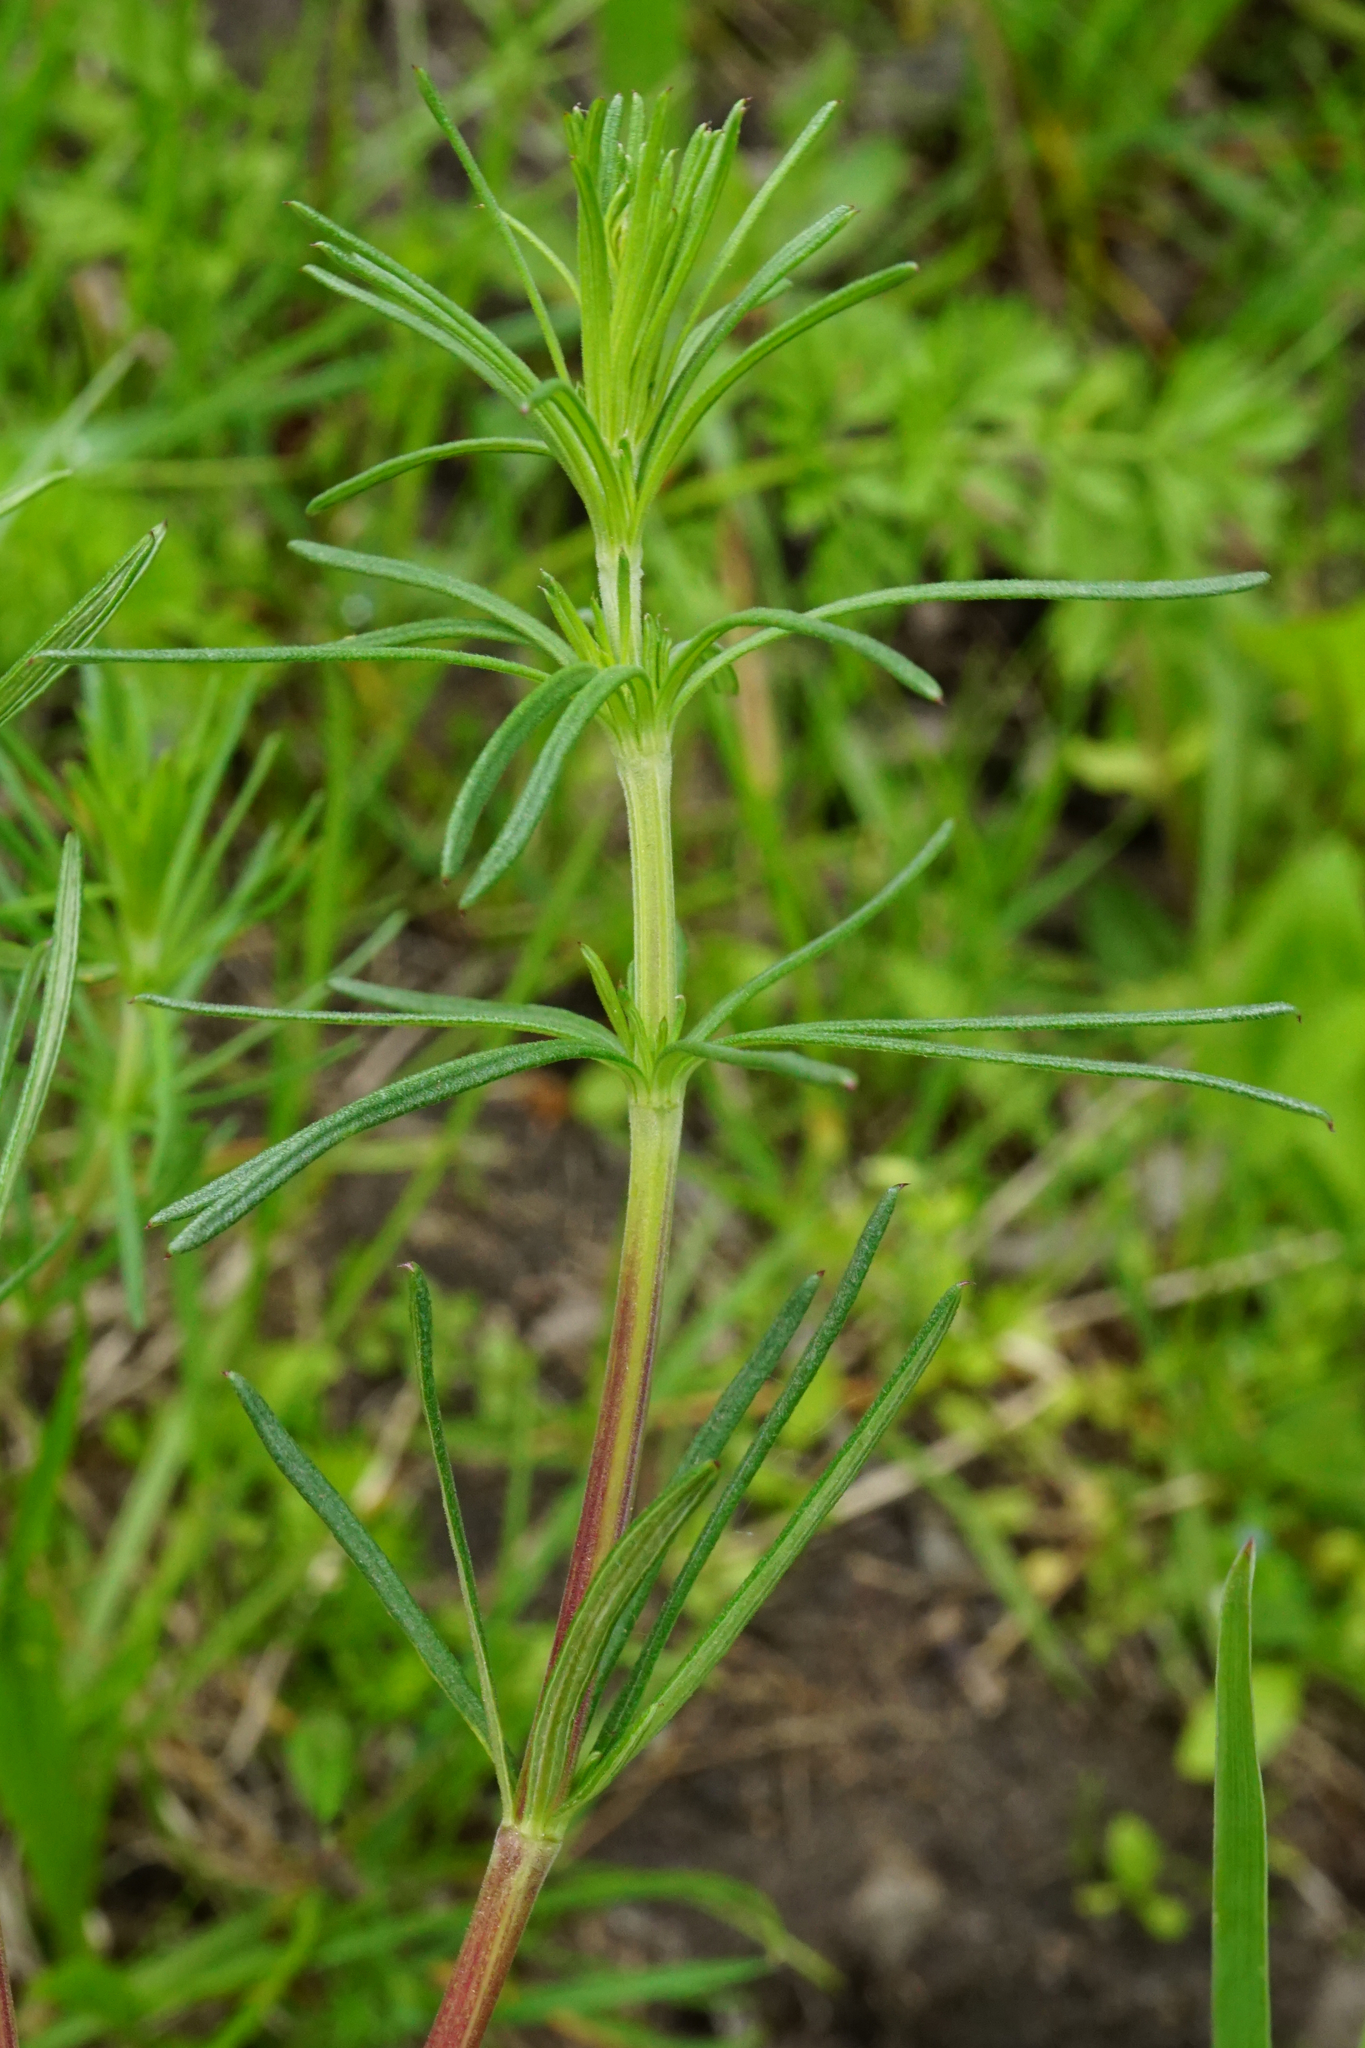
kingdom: Plantae
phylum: Tracheophyta
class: Magnoliopsida
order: Gentianales
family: Rubiaceae
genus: Galium
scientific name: Galium verum
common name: Lady's bedstraw
